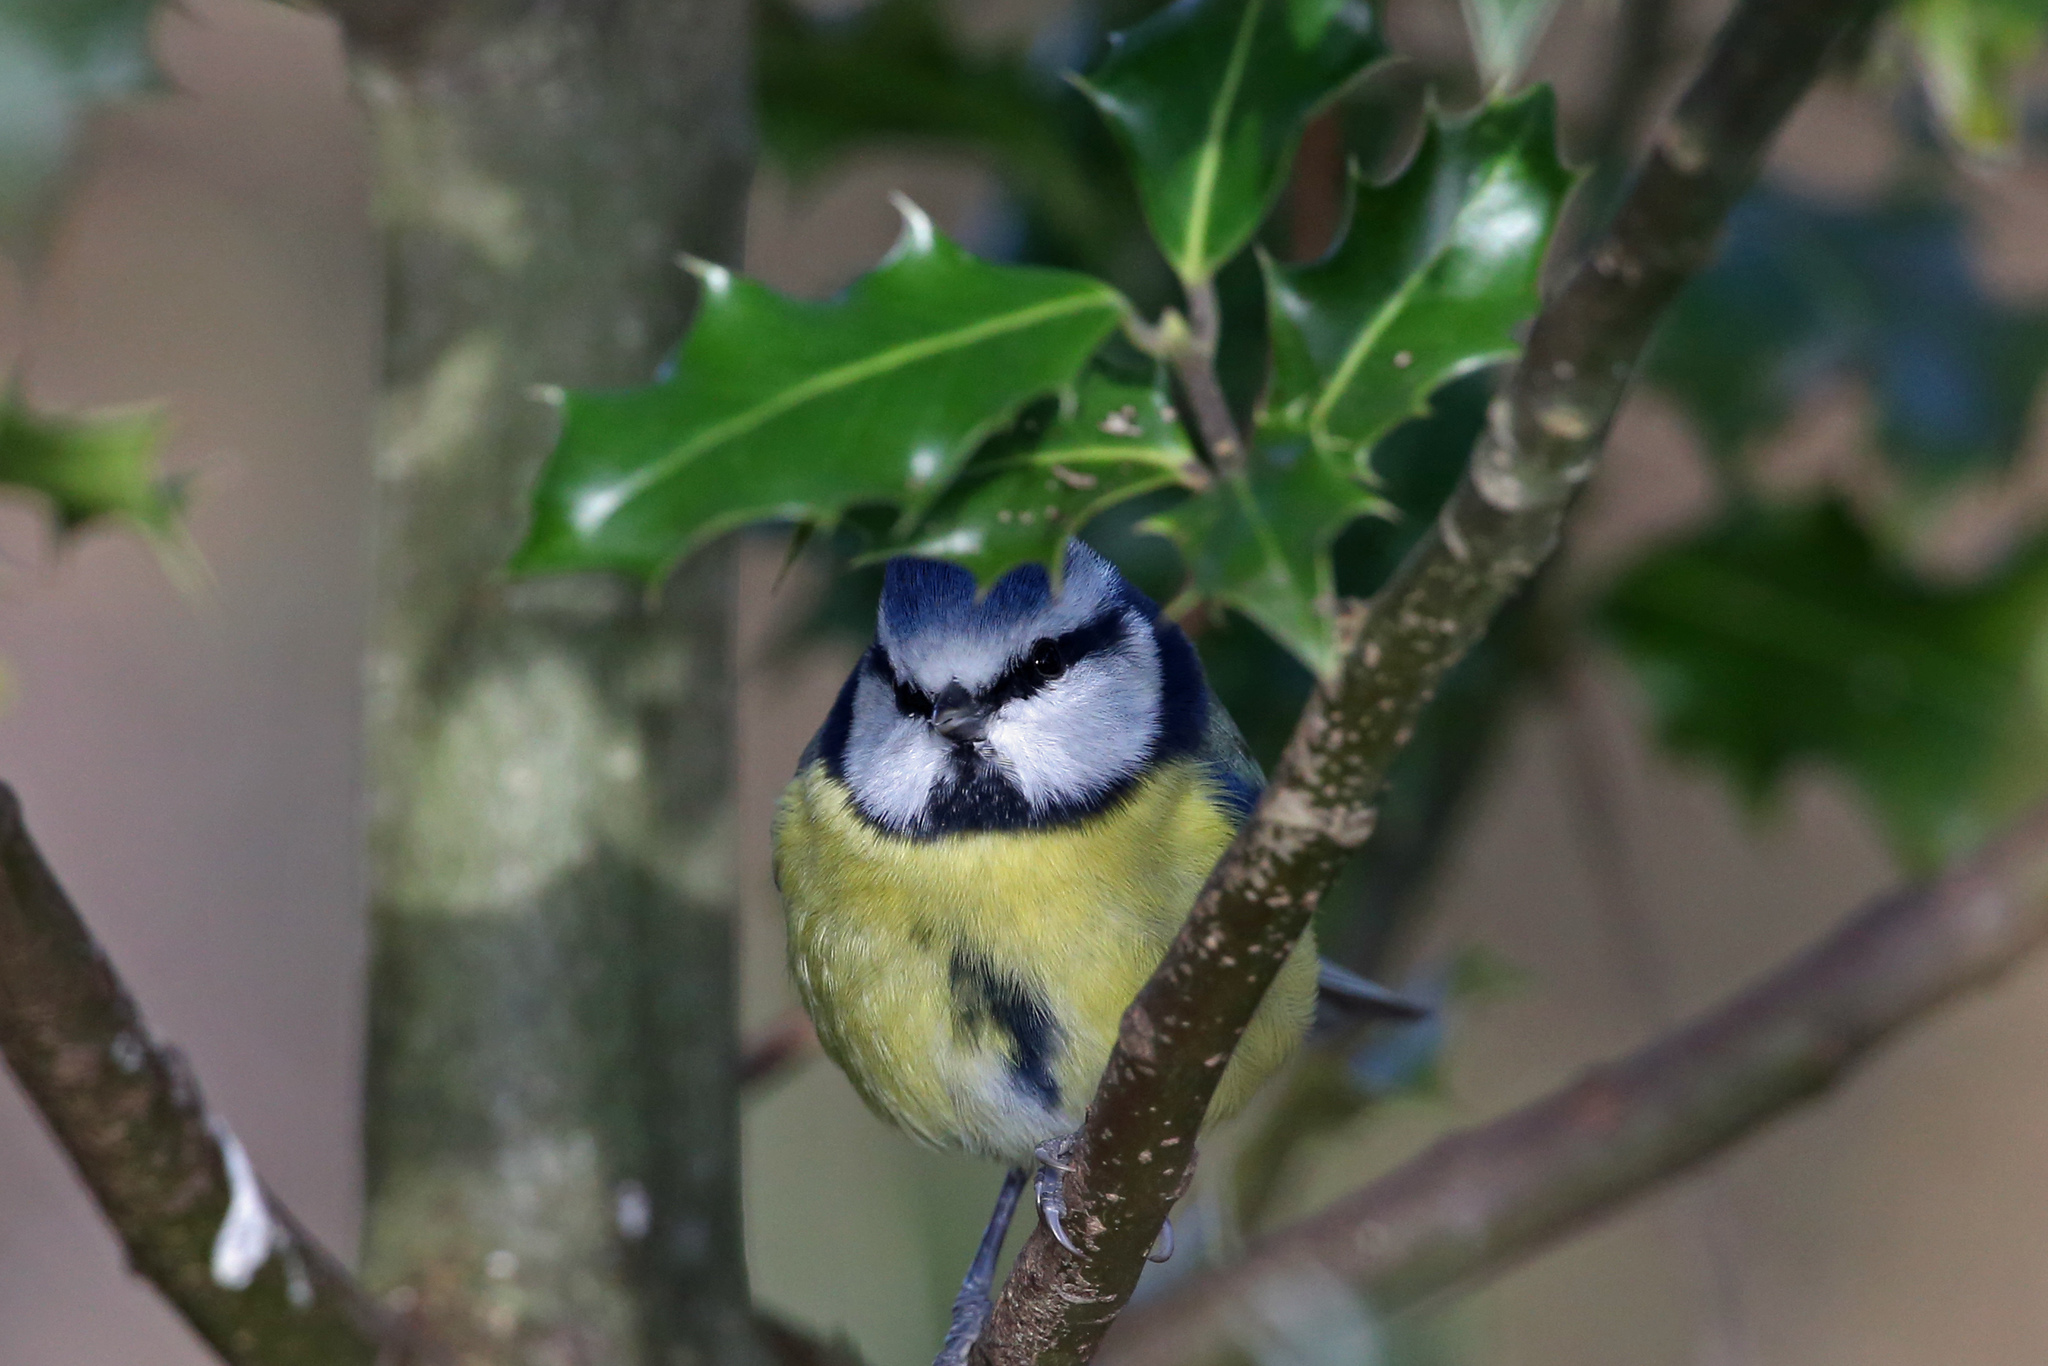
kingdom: Animalia
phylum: Chordata
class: Aves
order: Passeriformes
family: Paridae
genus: Cyanistes
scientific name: Cyanistes caeruleus
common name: Eurasian blue tit
